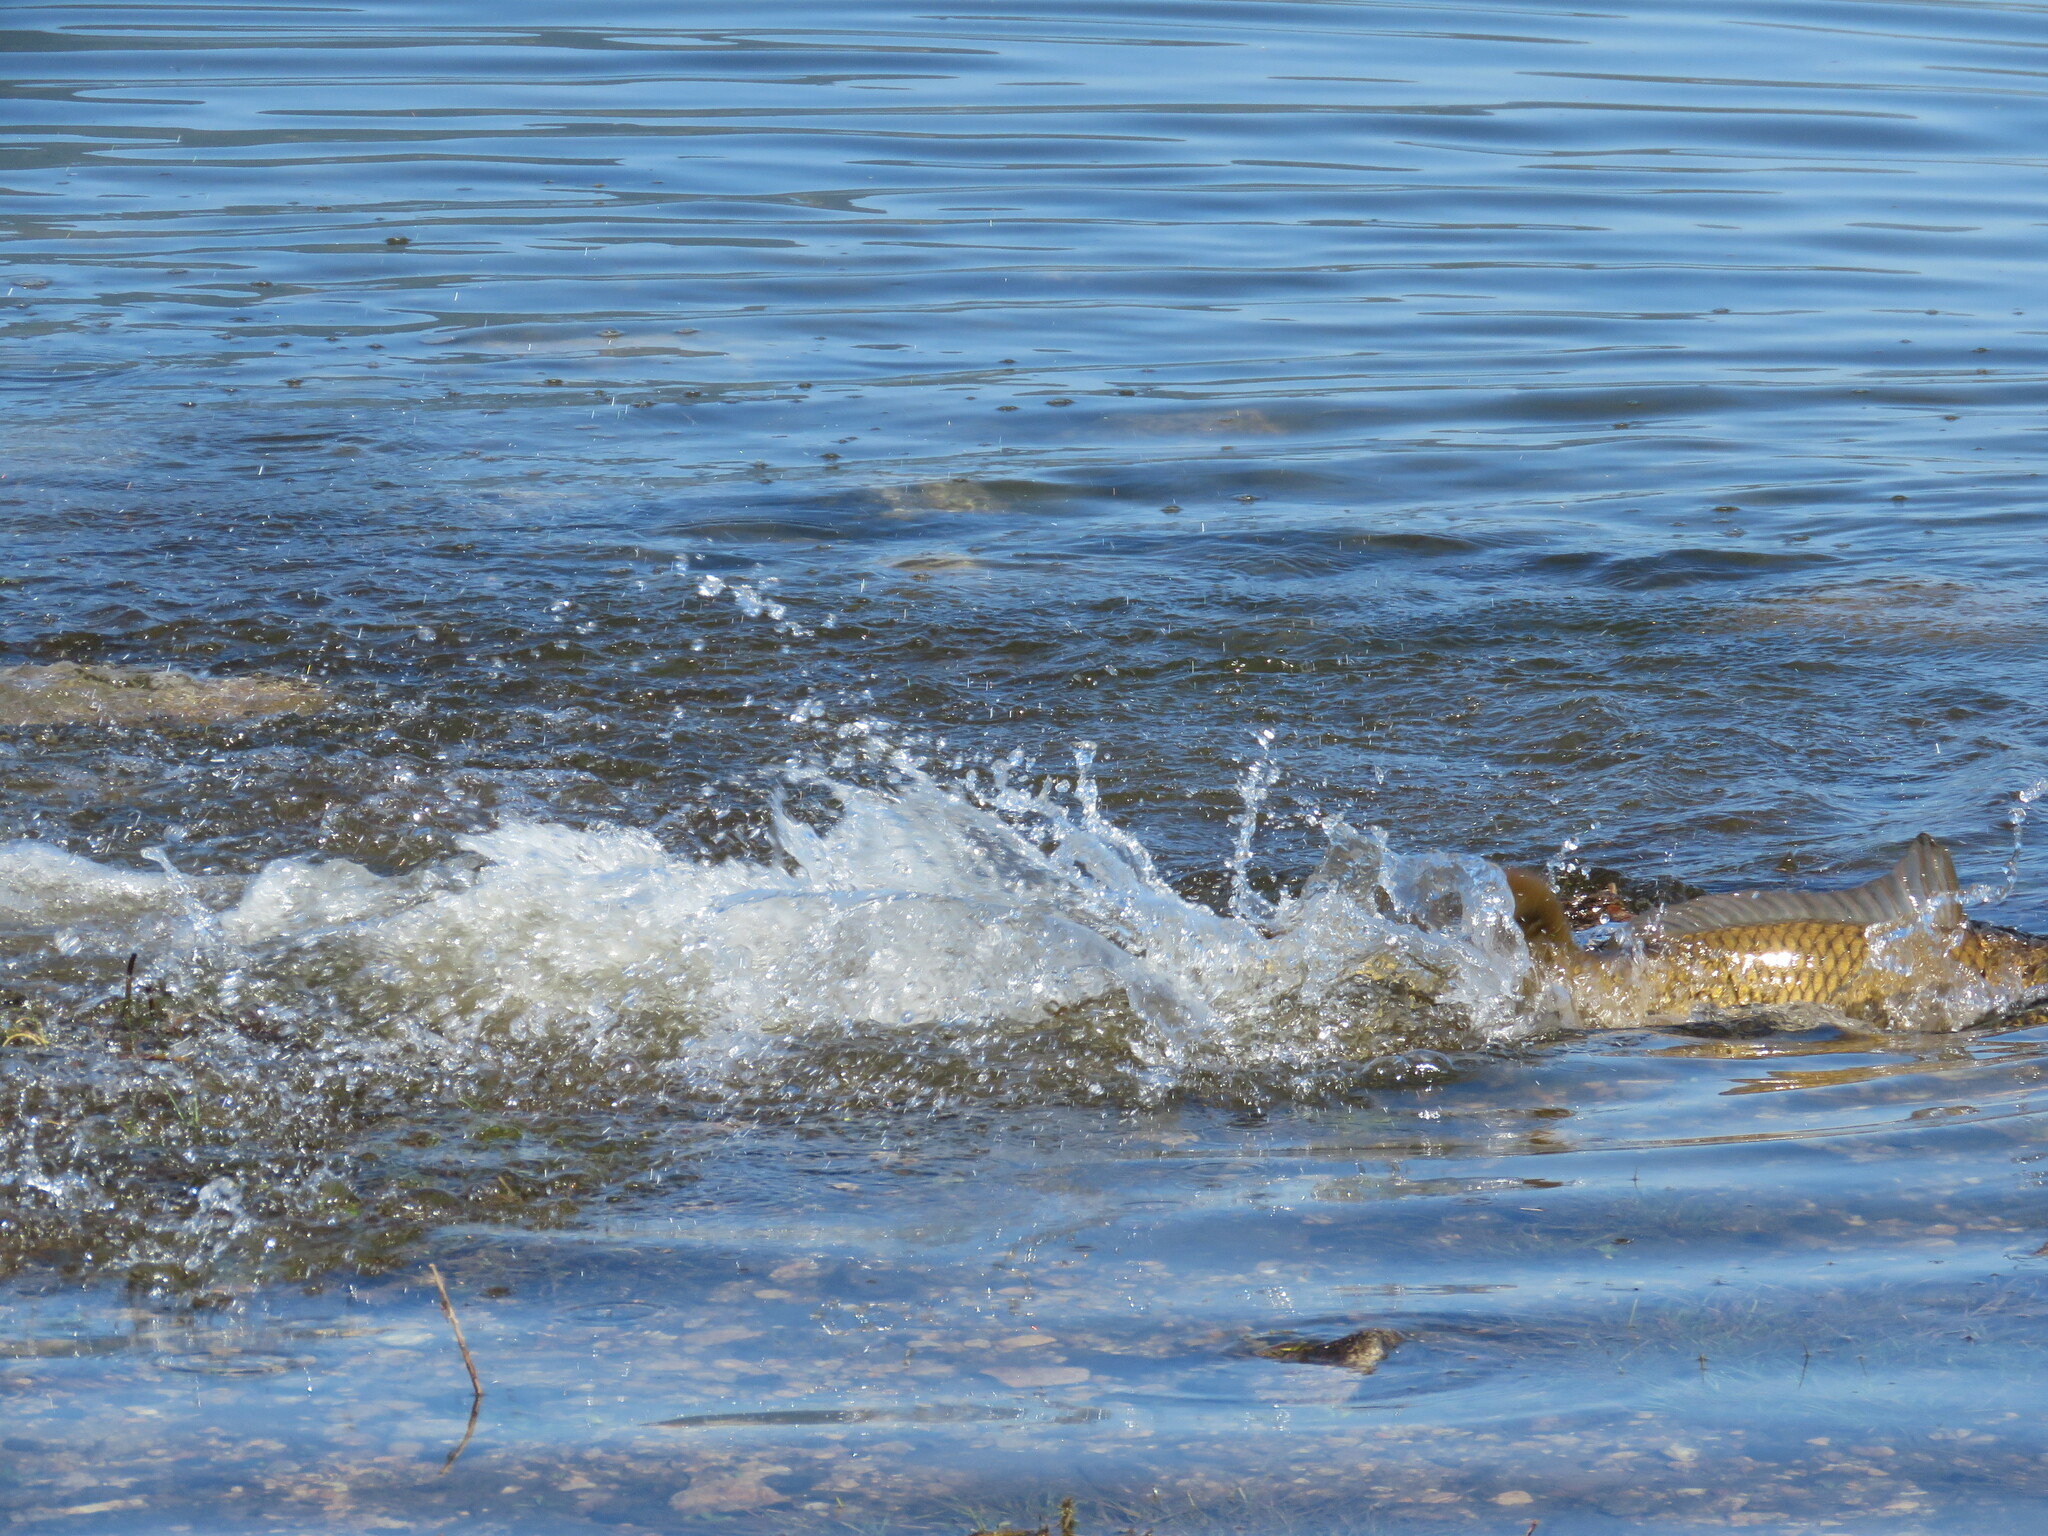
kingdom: Animalia
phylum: Chordata
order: Cypriniformes
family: Cyprinidae
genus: Cyprinus
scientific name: Cyprinus carpio
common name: Common carp
